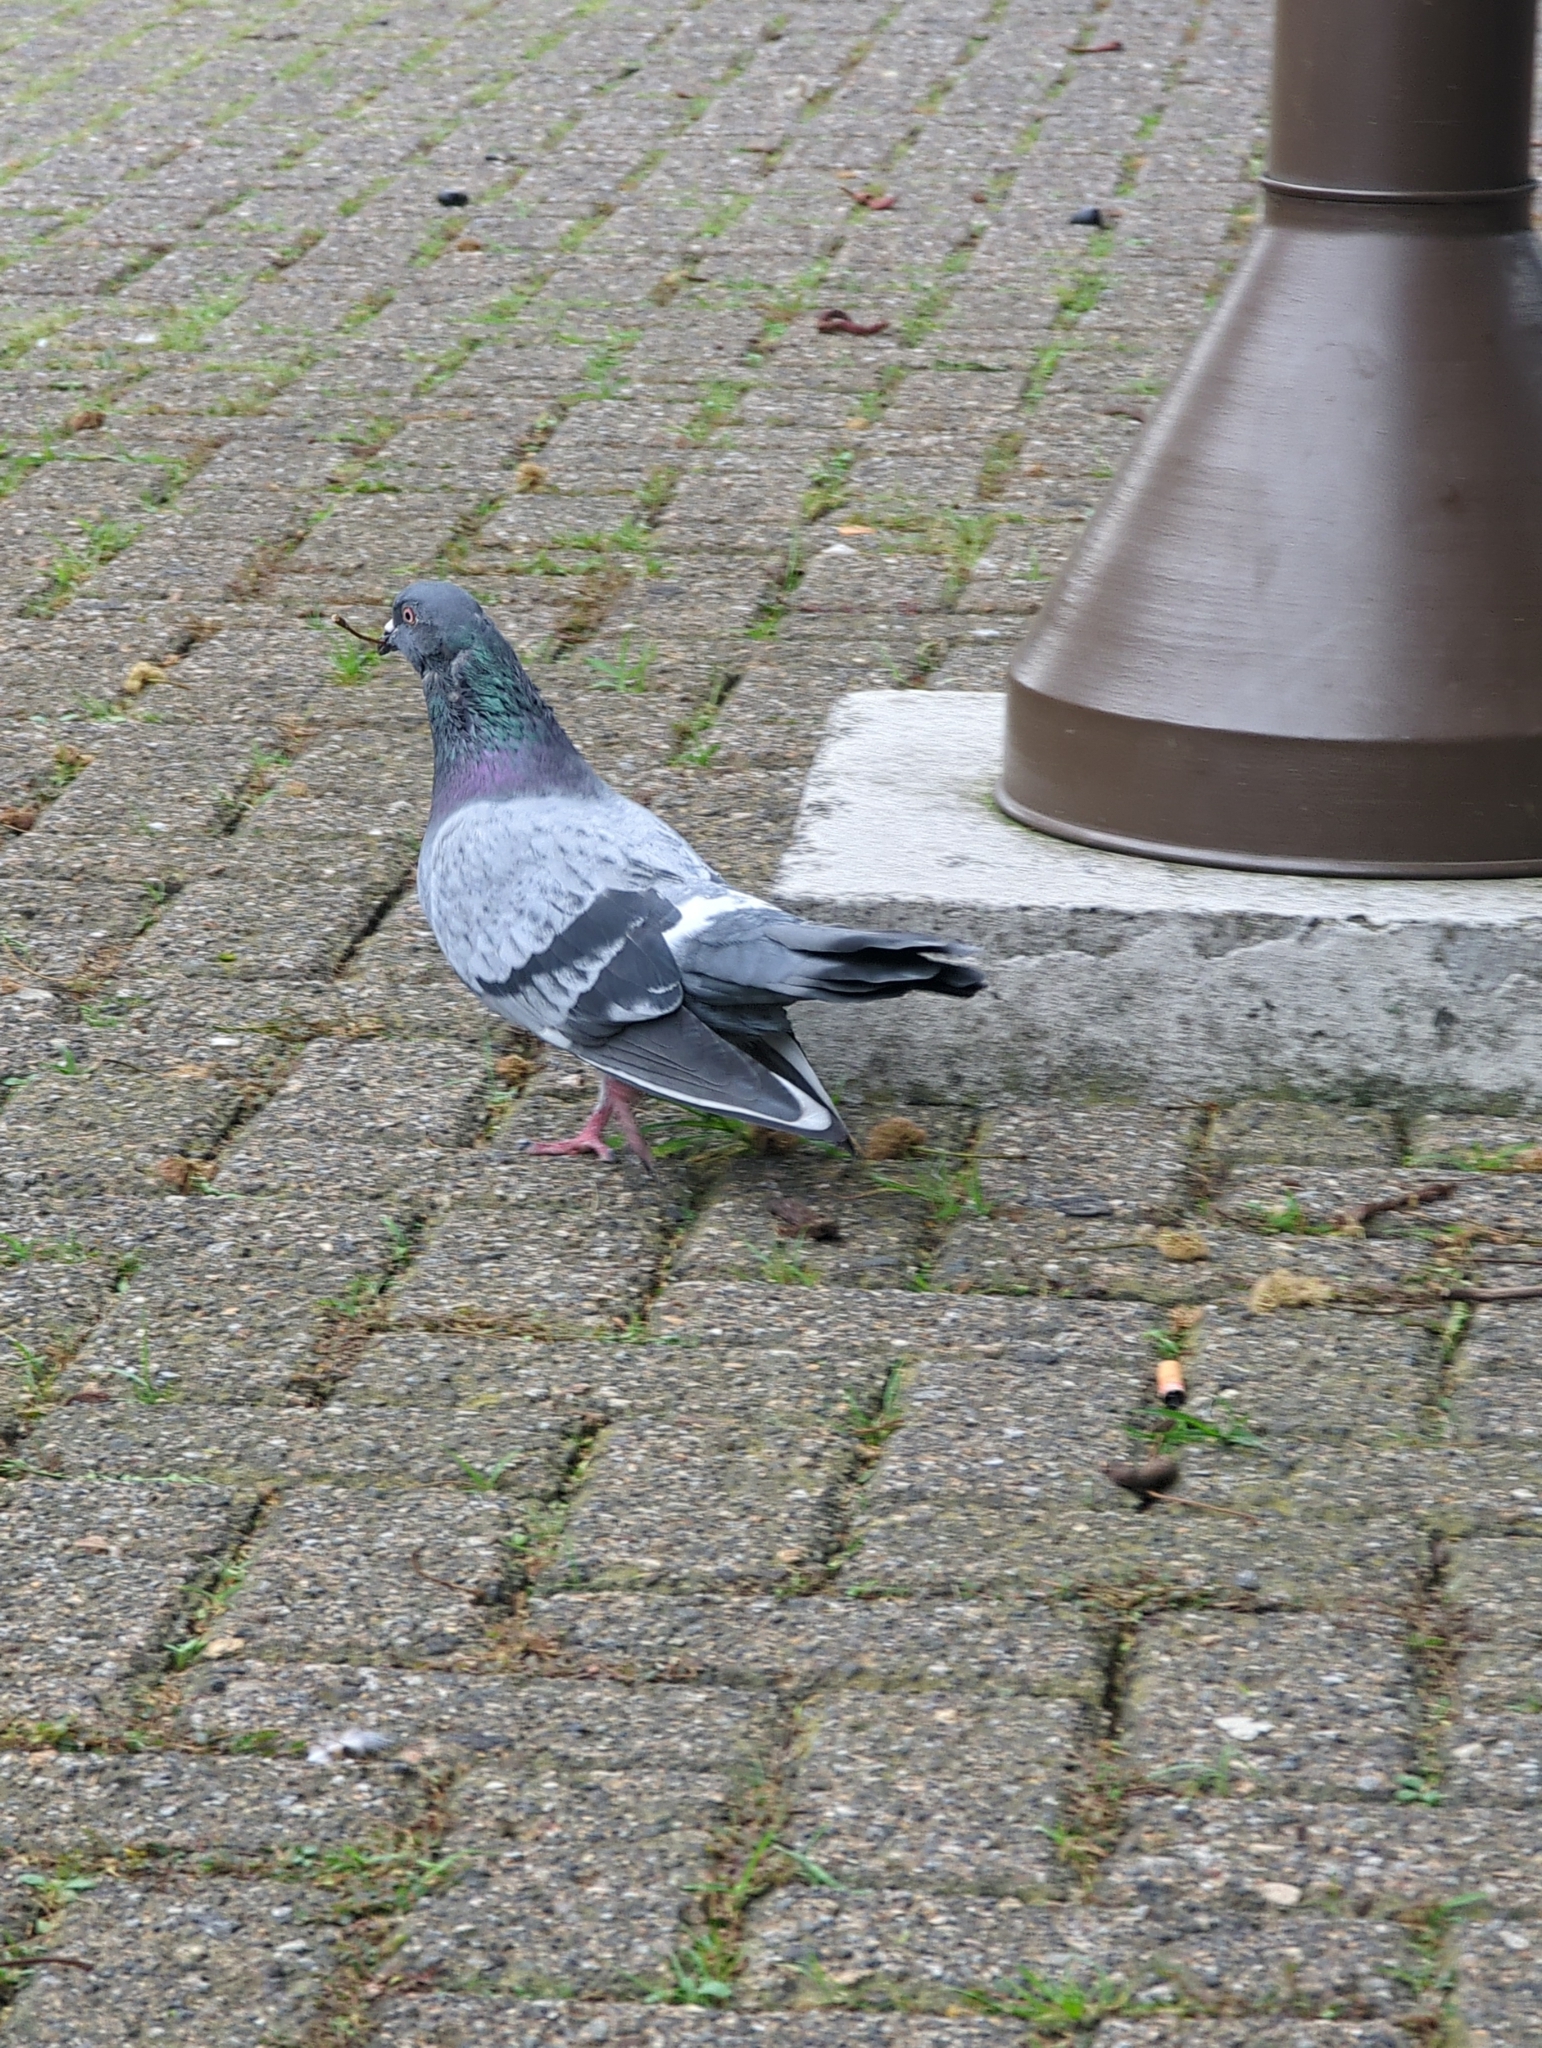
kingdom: Animalia
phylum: Chordata
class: Aves
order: Columbiformes
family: Columbidae
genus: Columba
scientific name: Columba livia
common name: Rock pigeon
